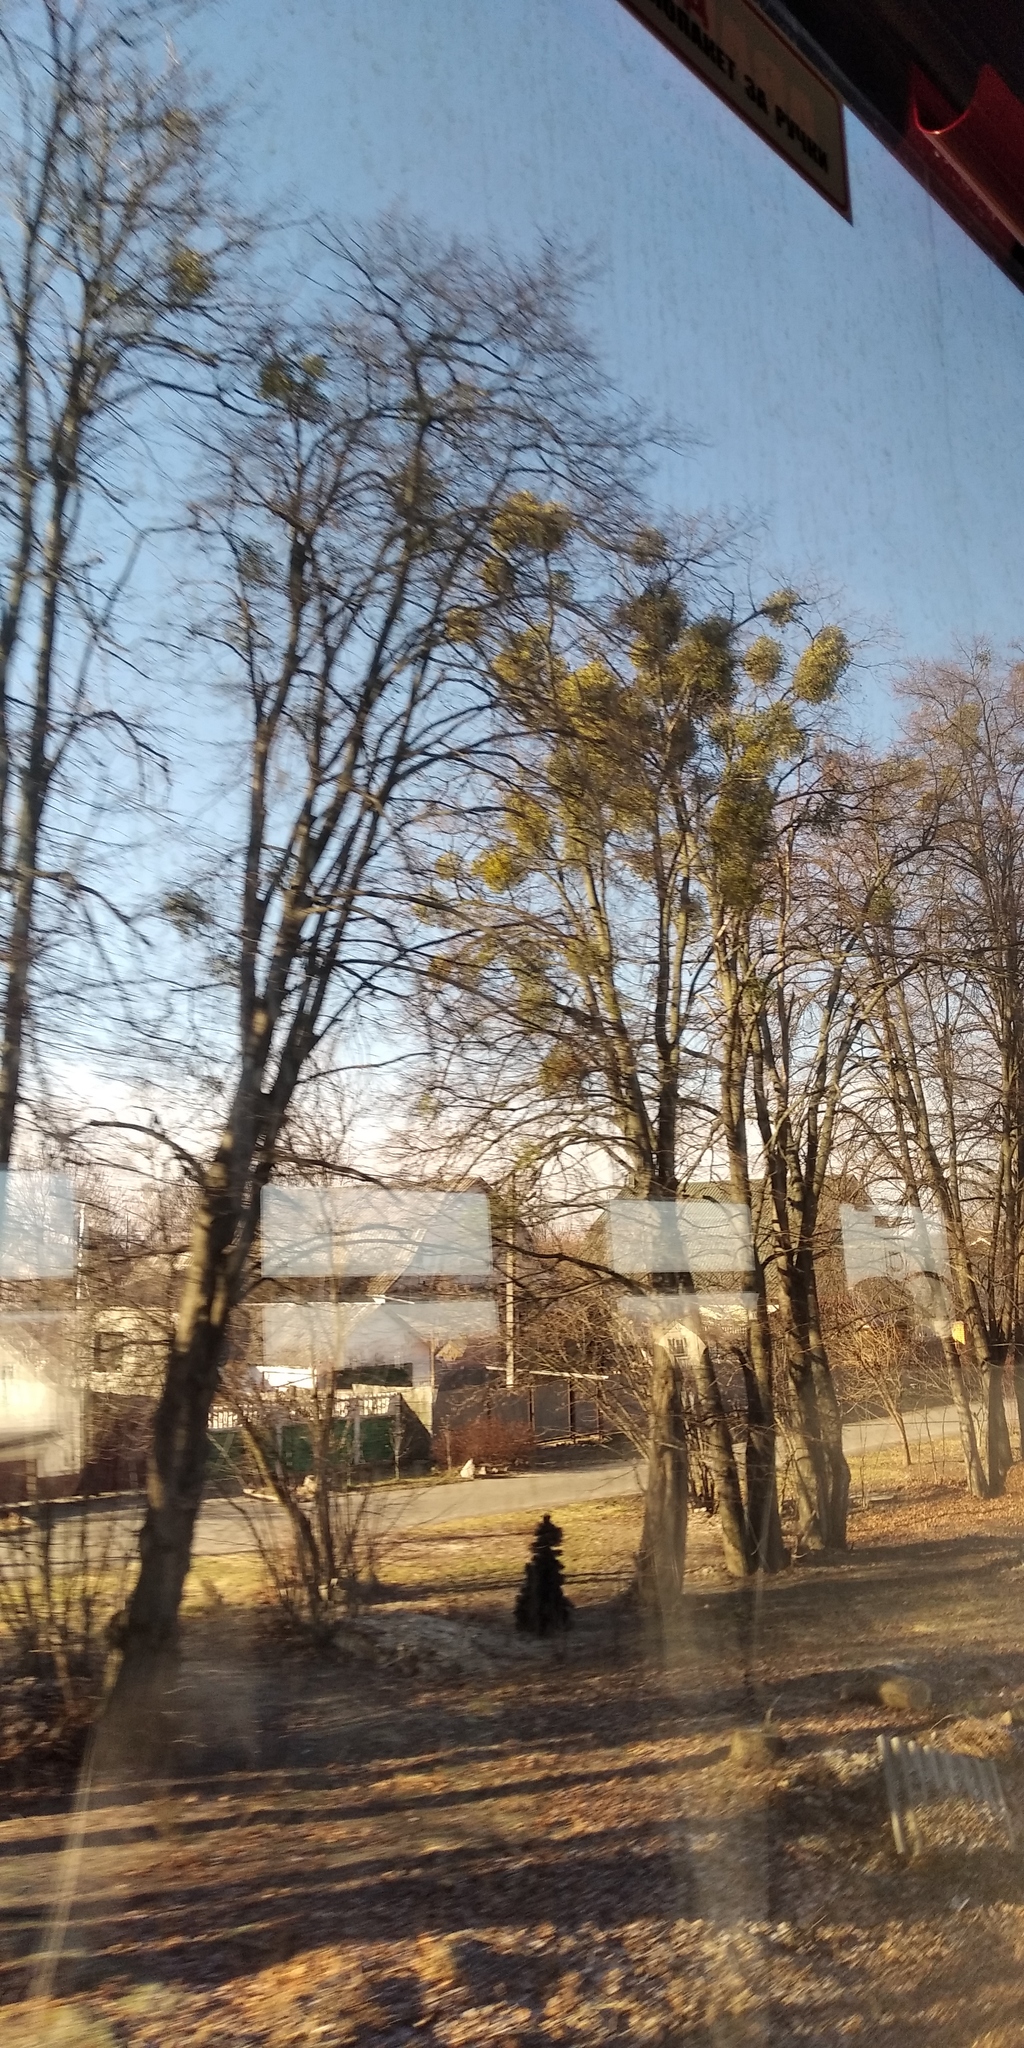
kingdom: Plantae
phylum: Tracheophyta
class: Magnoliopsida
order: Santalales
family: Viscaceae
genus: Viscum
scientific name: Viscum album
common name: Mistletoe
